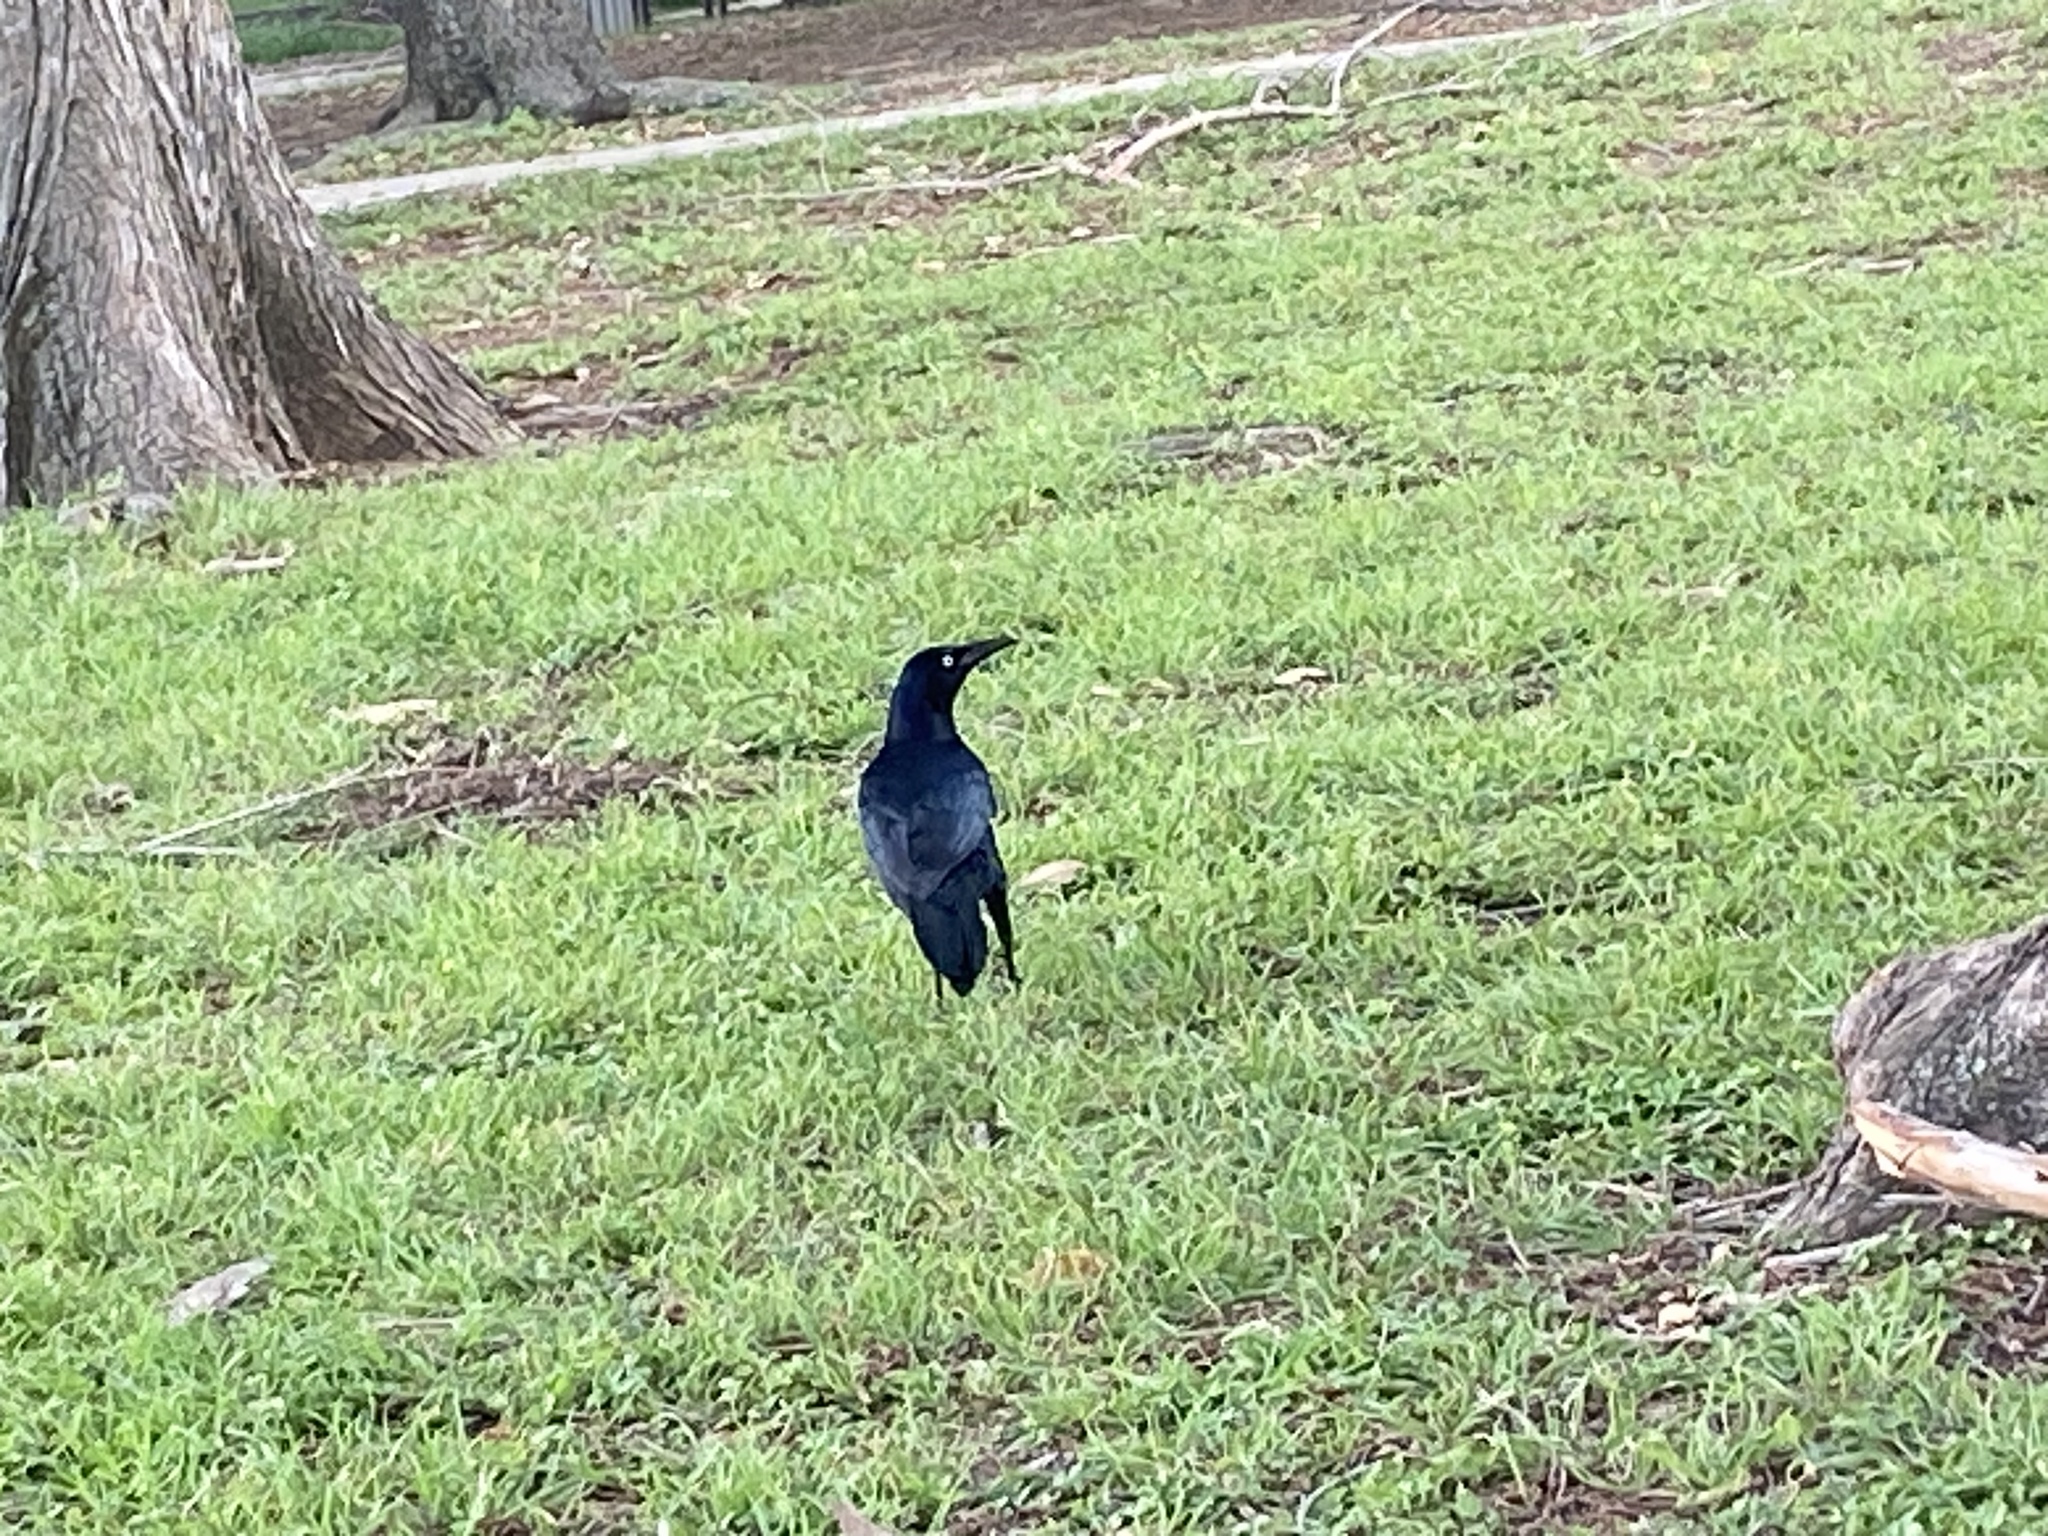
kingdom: Animalia
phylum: Chordata
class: Aves
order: Passeriformes
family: Icteridae
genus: Quiscalus
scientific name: Quiscalus mexicanus
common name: Great-tailed grackle
